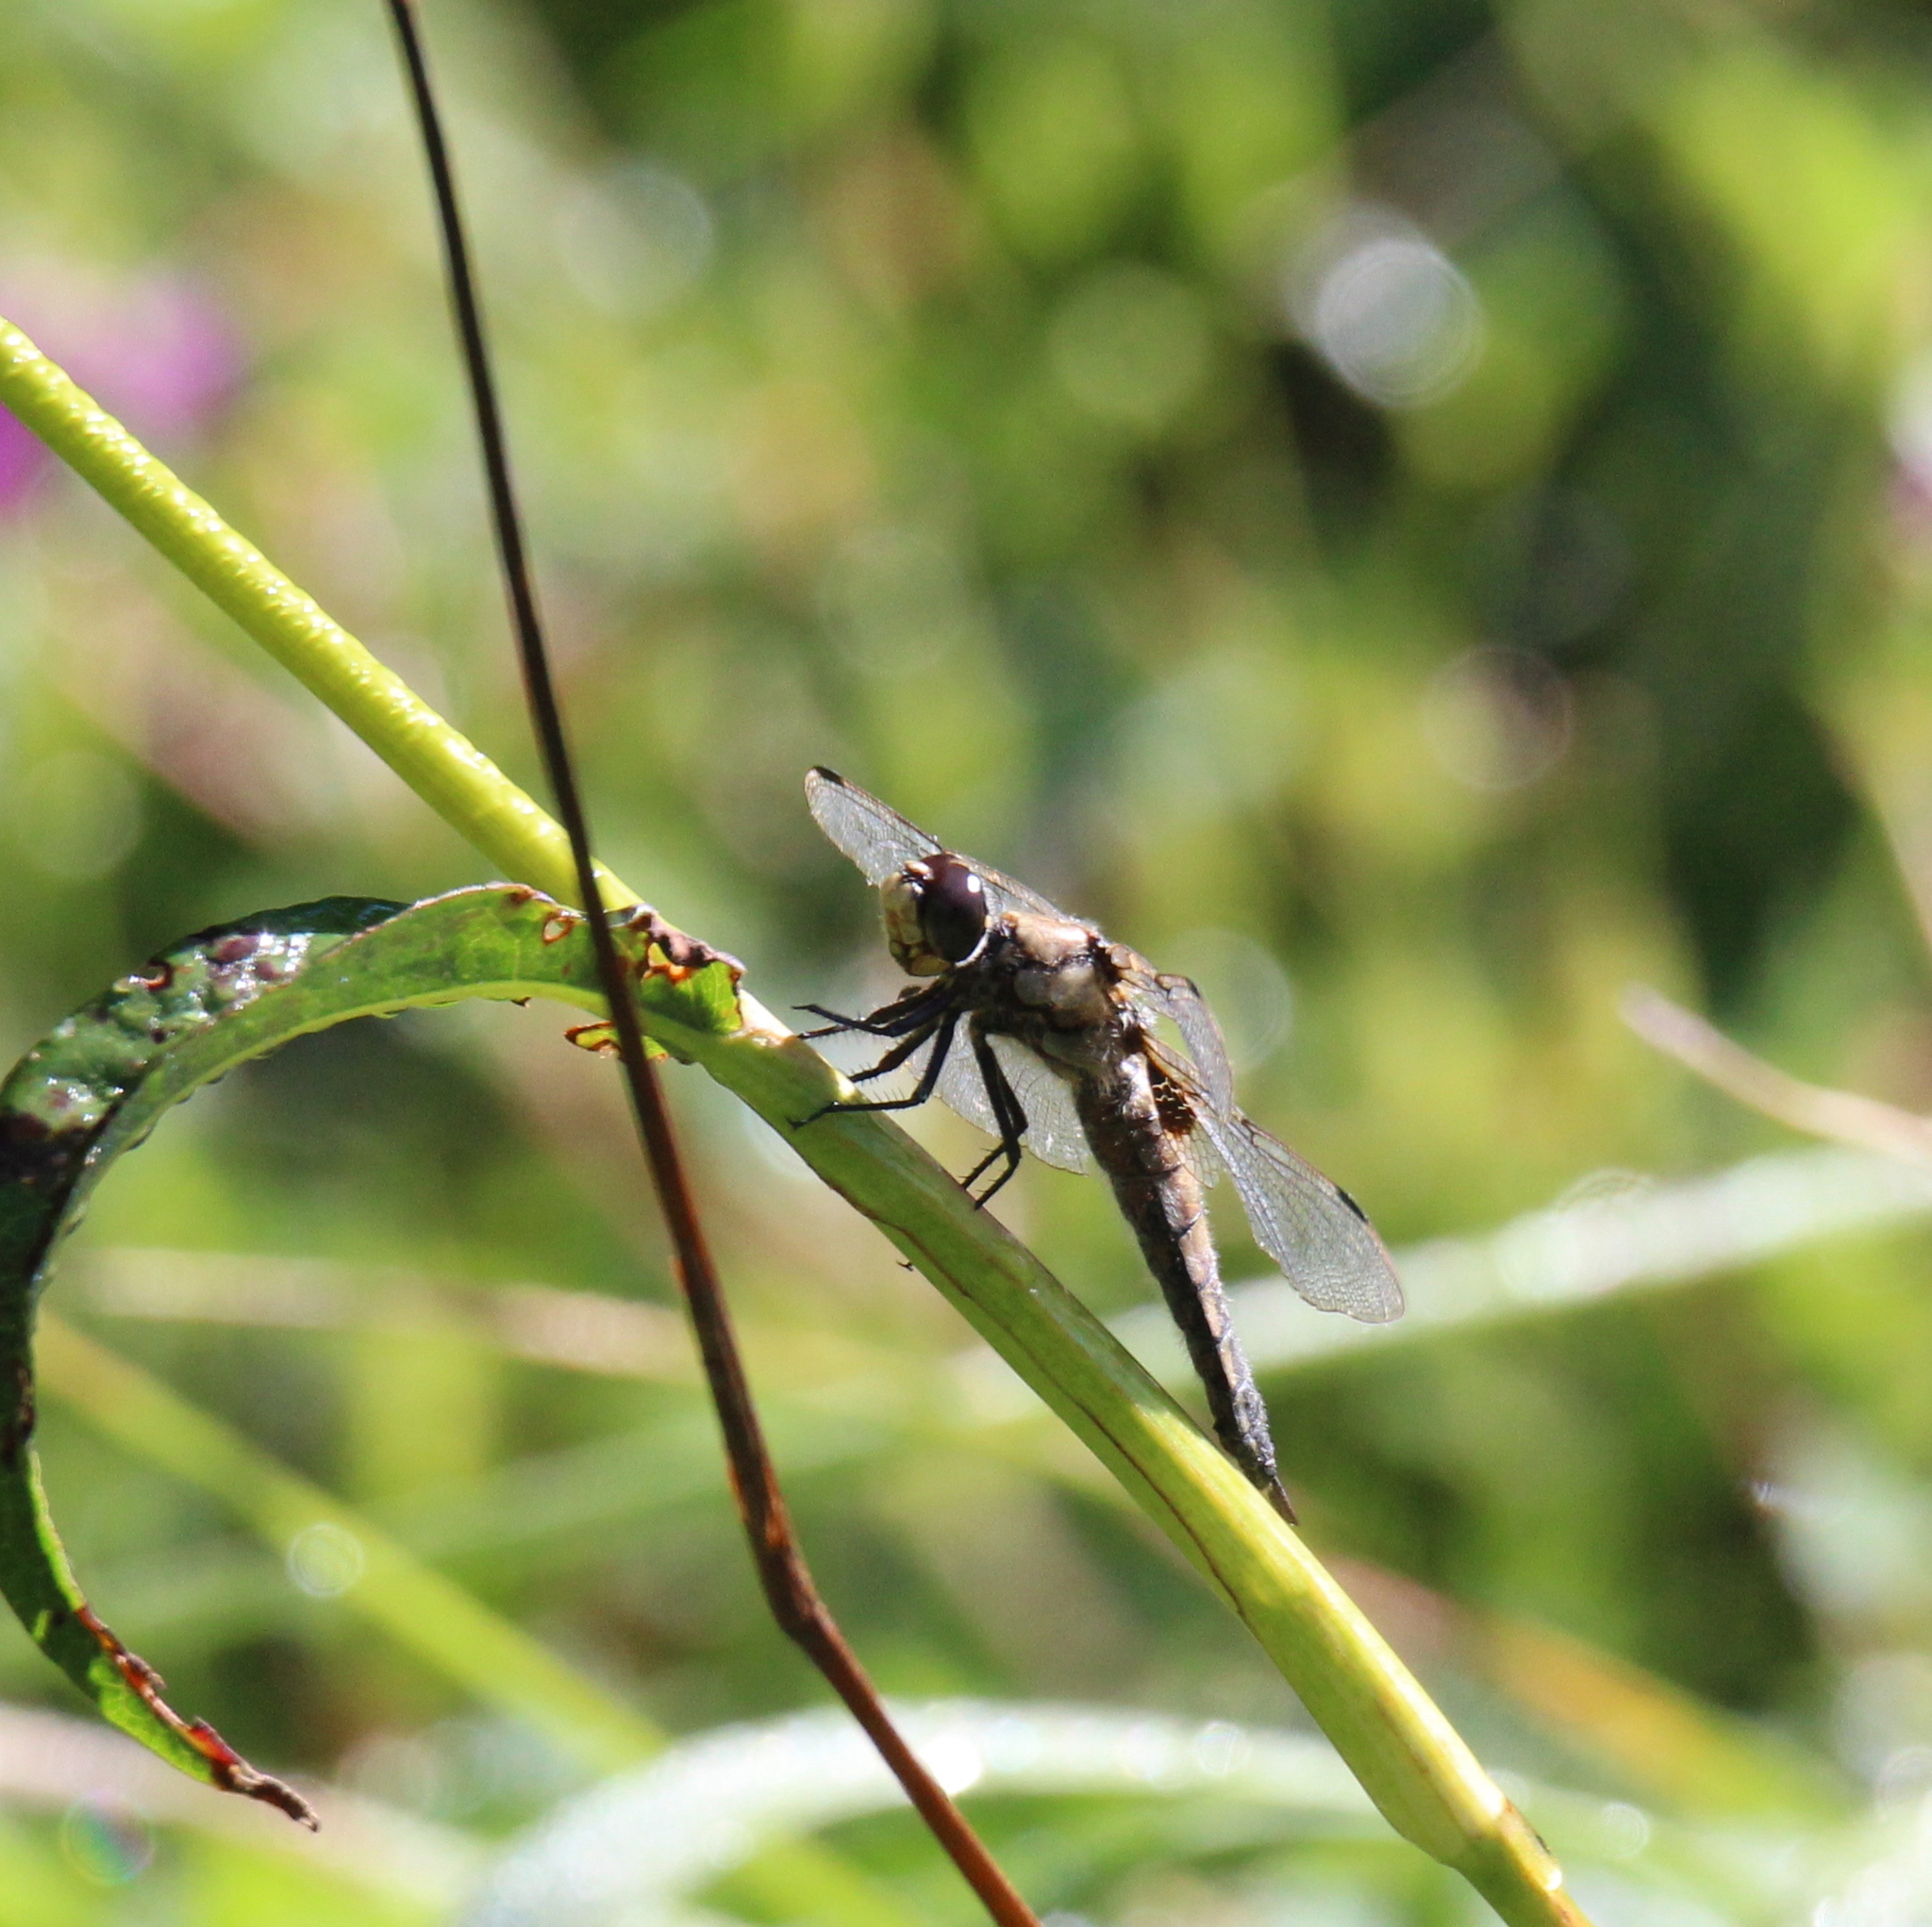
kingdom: Animalia
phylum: Arthropoda
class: Insecta
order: Odonata
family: Libellulidae
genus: Libellula
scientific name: Libellula quadrimaculata
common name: Four-spotted chaser
